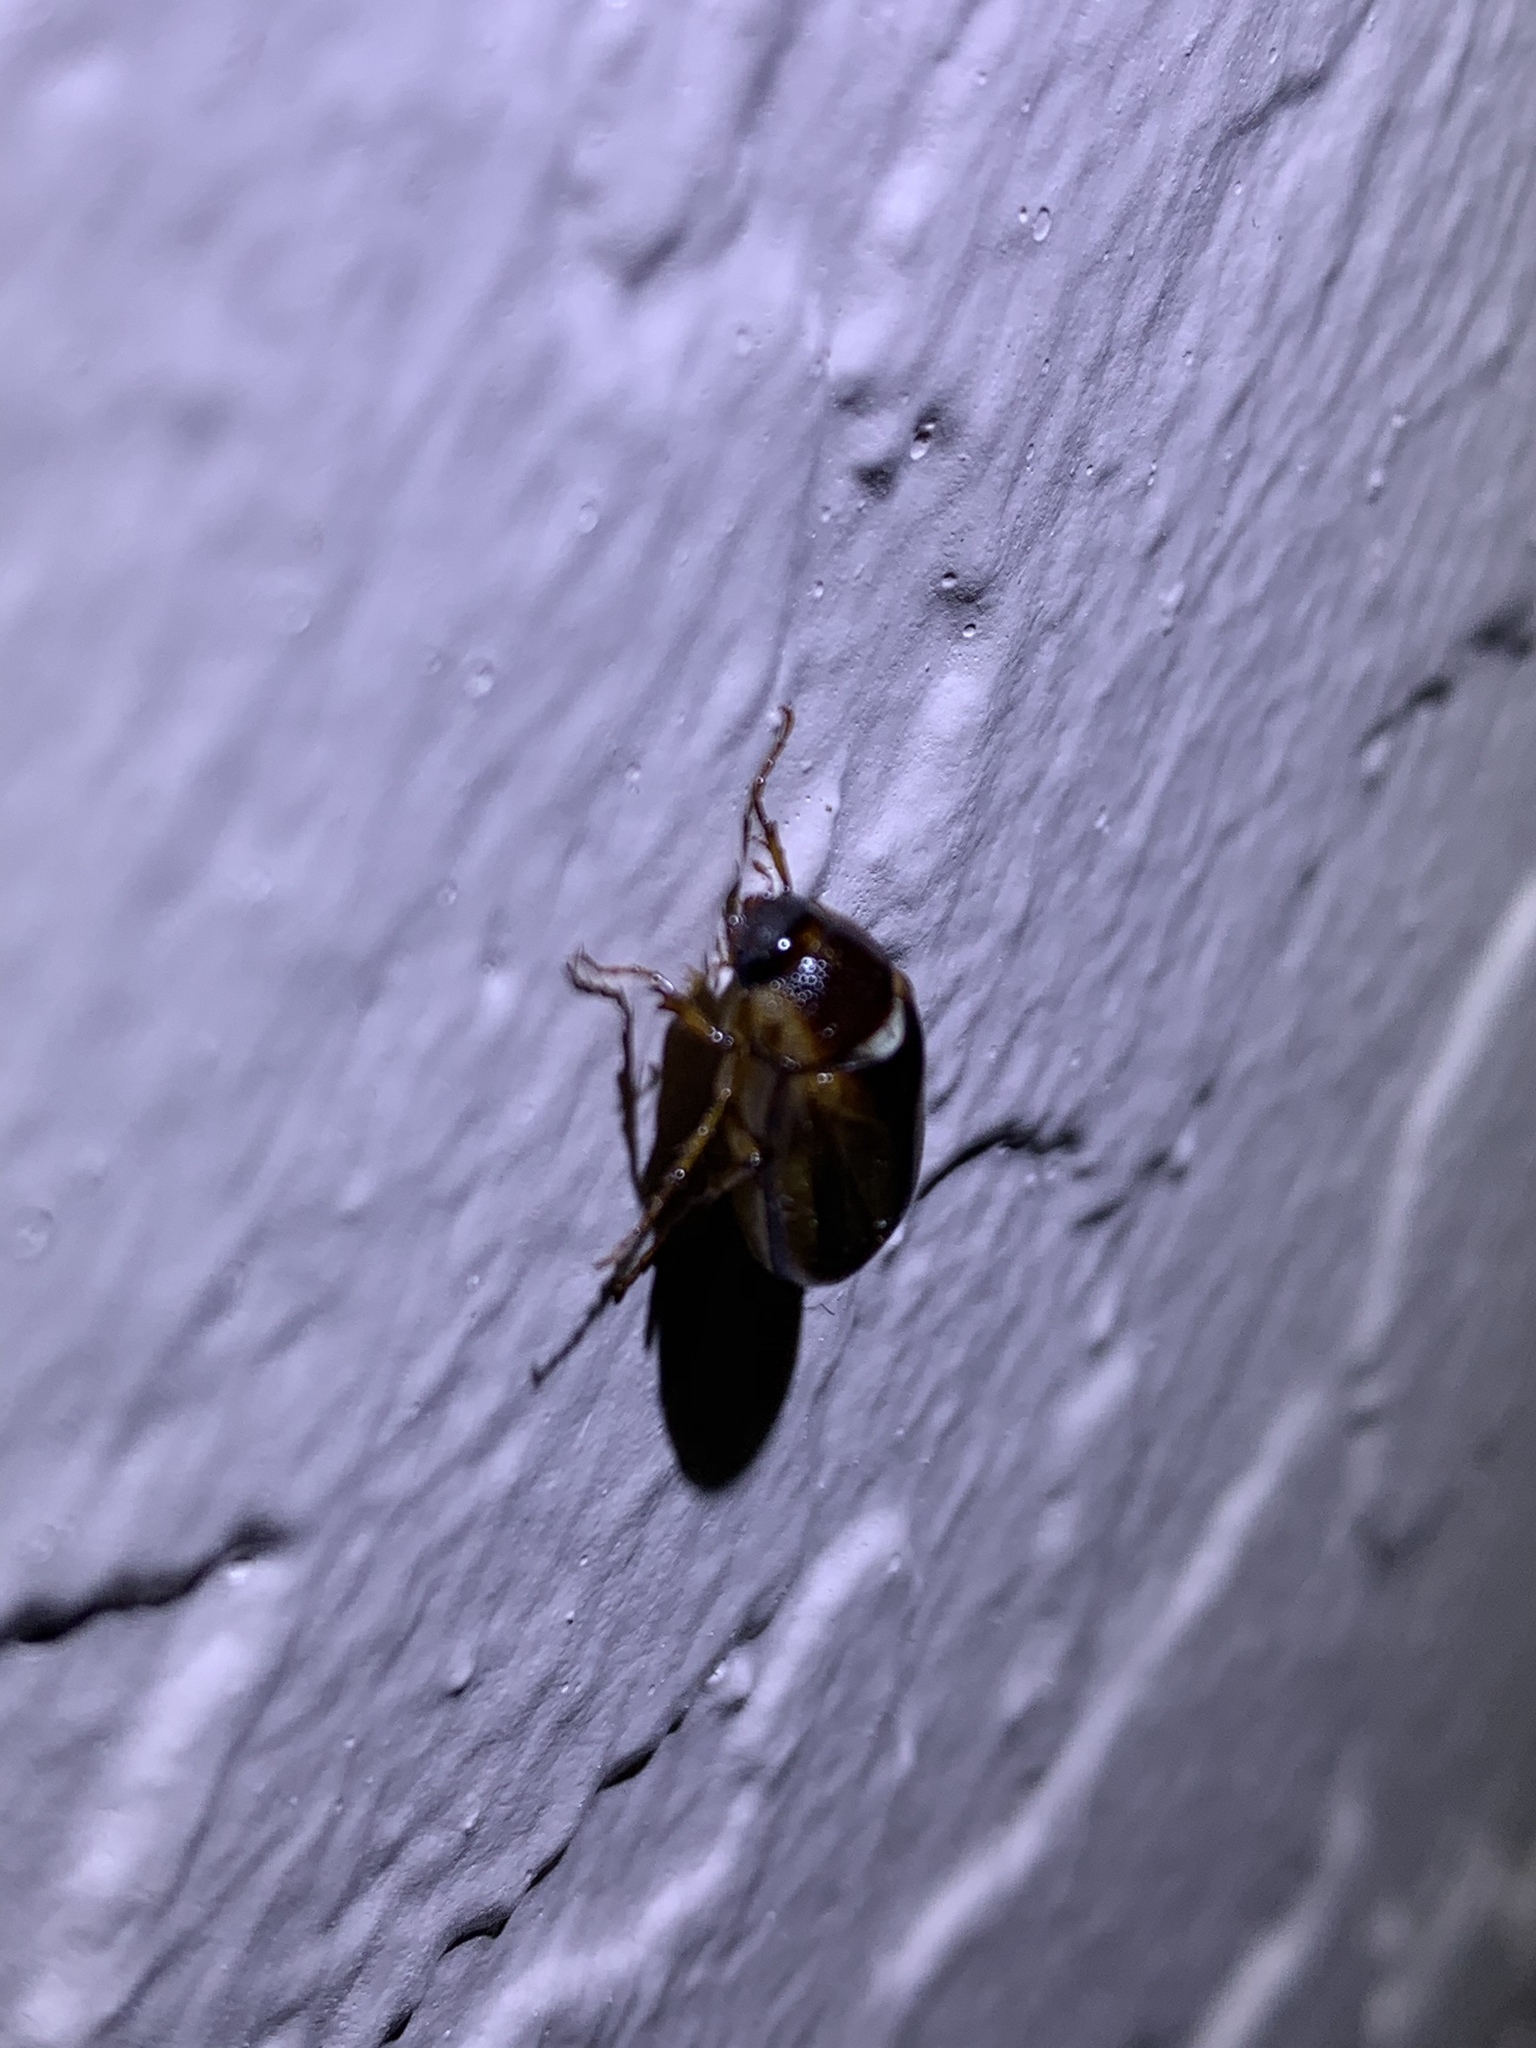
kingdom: Animalia
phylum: Arthropoda
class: Insecta
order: Coleoptera
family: Scarabaeidae
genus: Phyllophaga
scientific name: Phyllophaga bruneri
